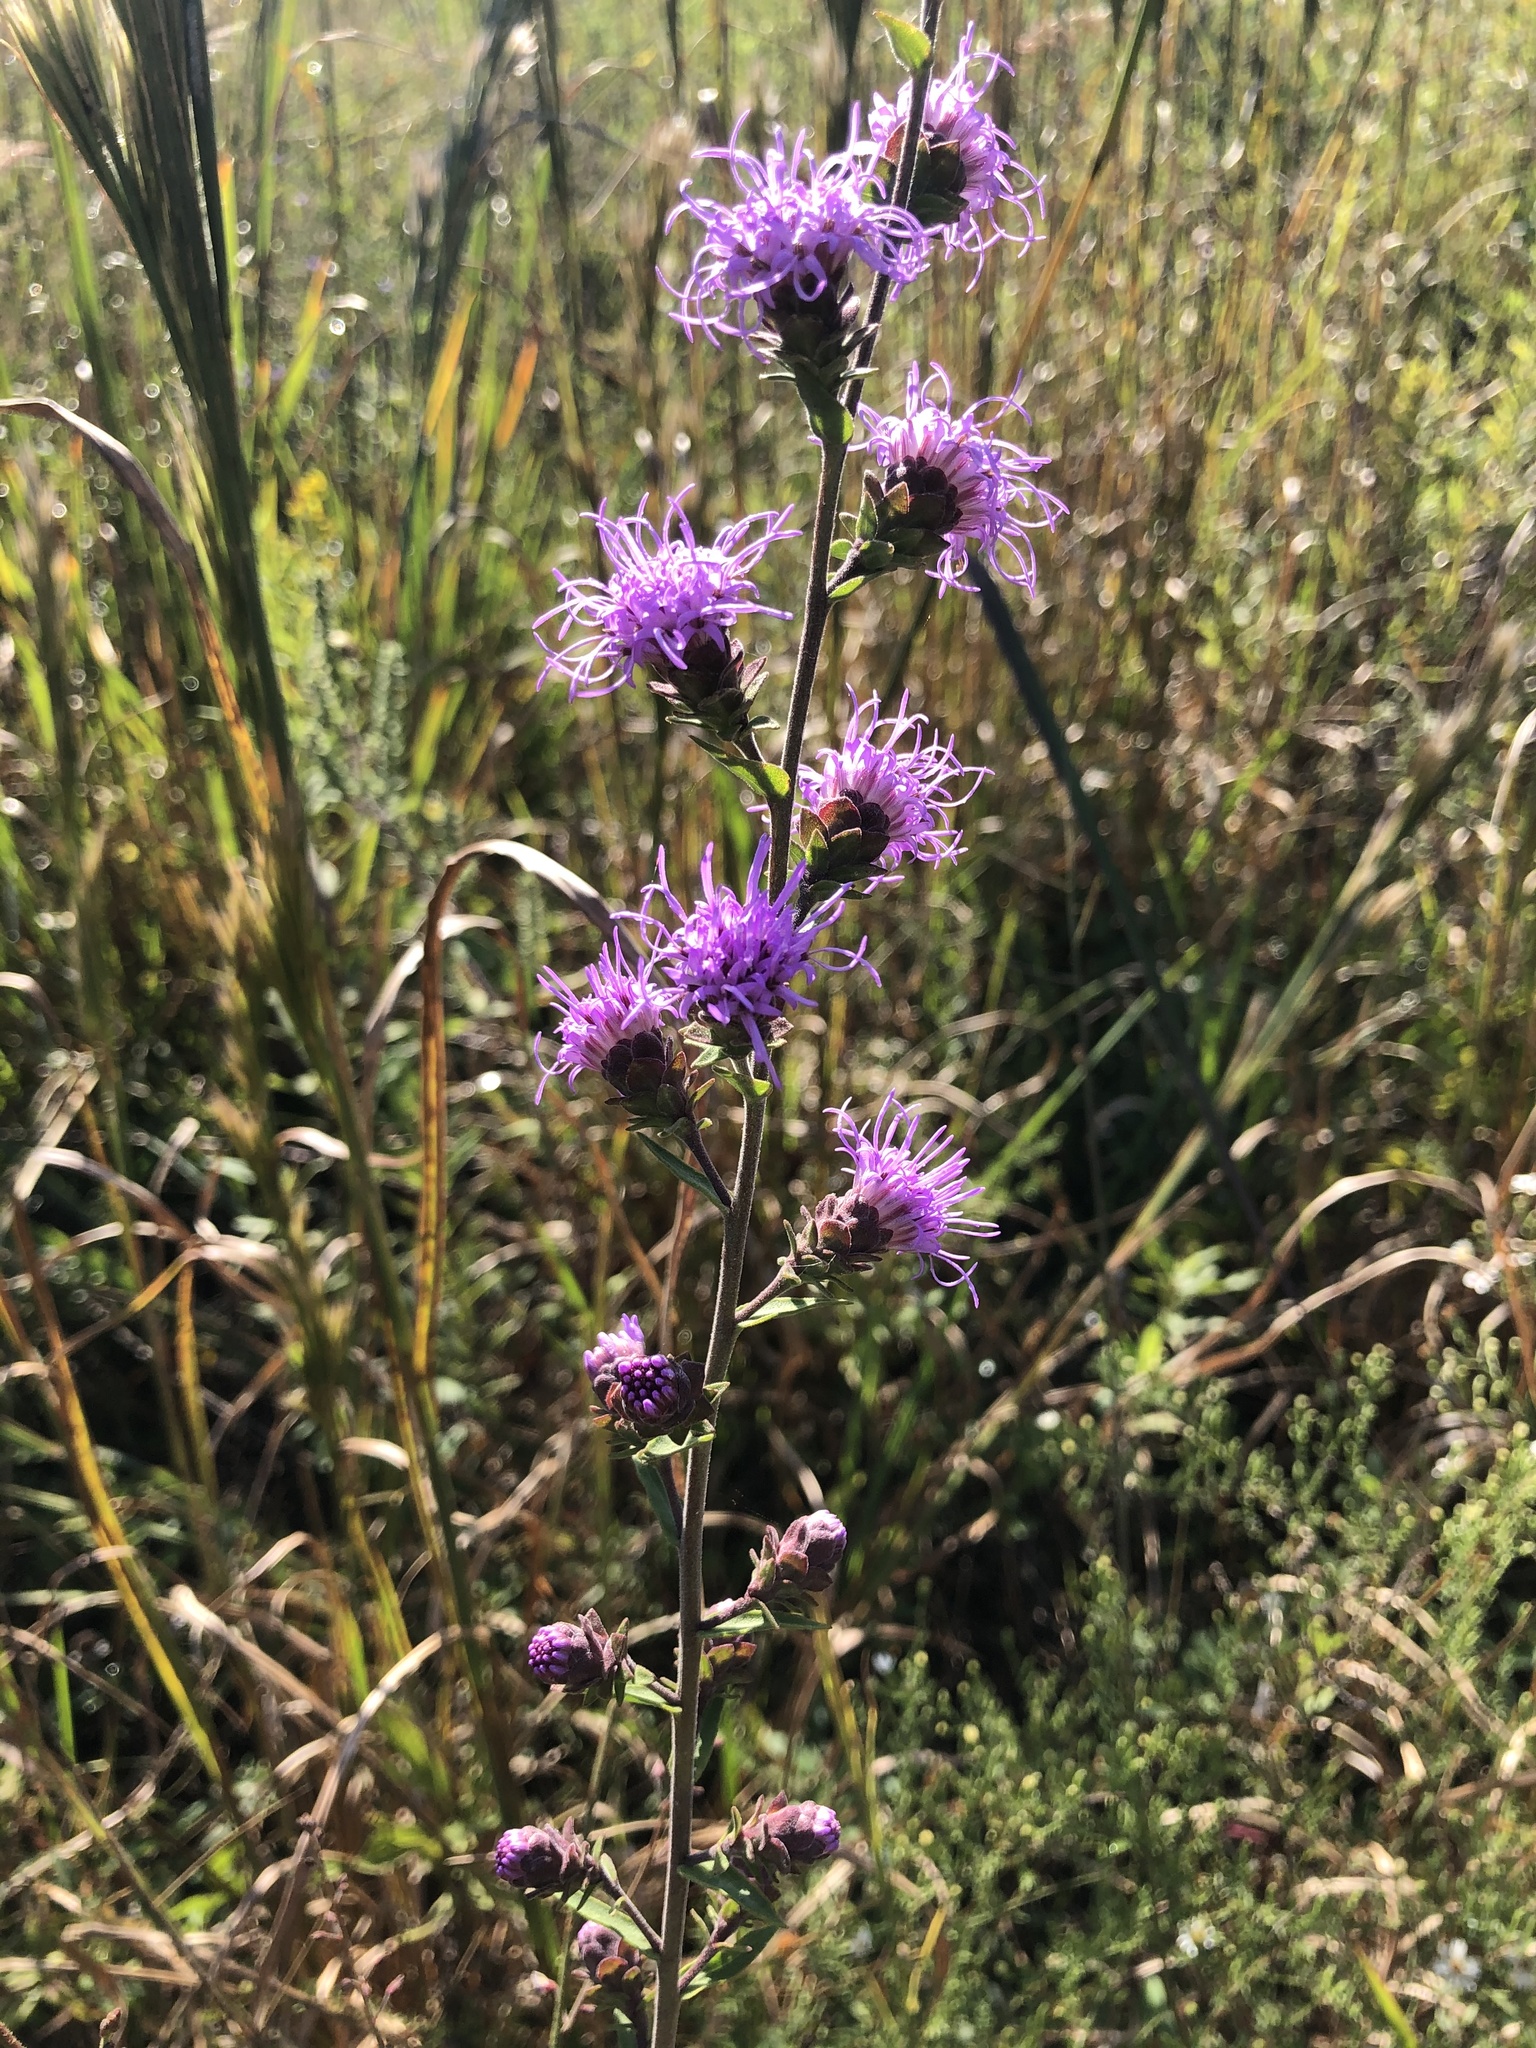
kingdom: Plantae
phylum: Tracheophyta
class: Magnoliopsida
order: Asterales
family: Asteraceae
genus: Liatris
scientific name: Liatris squarrulosa
